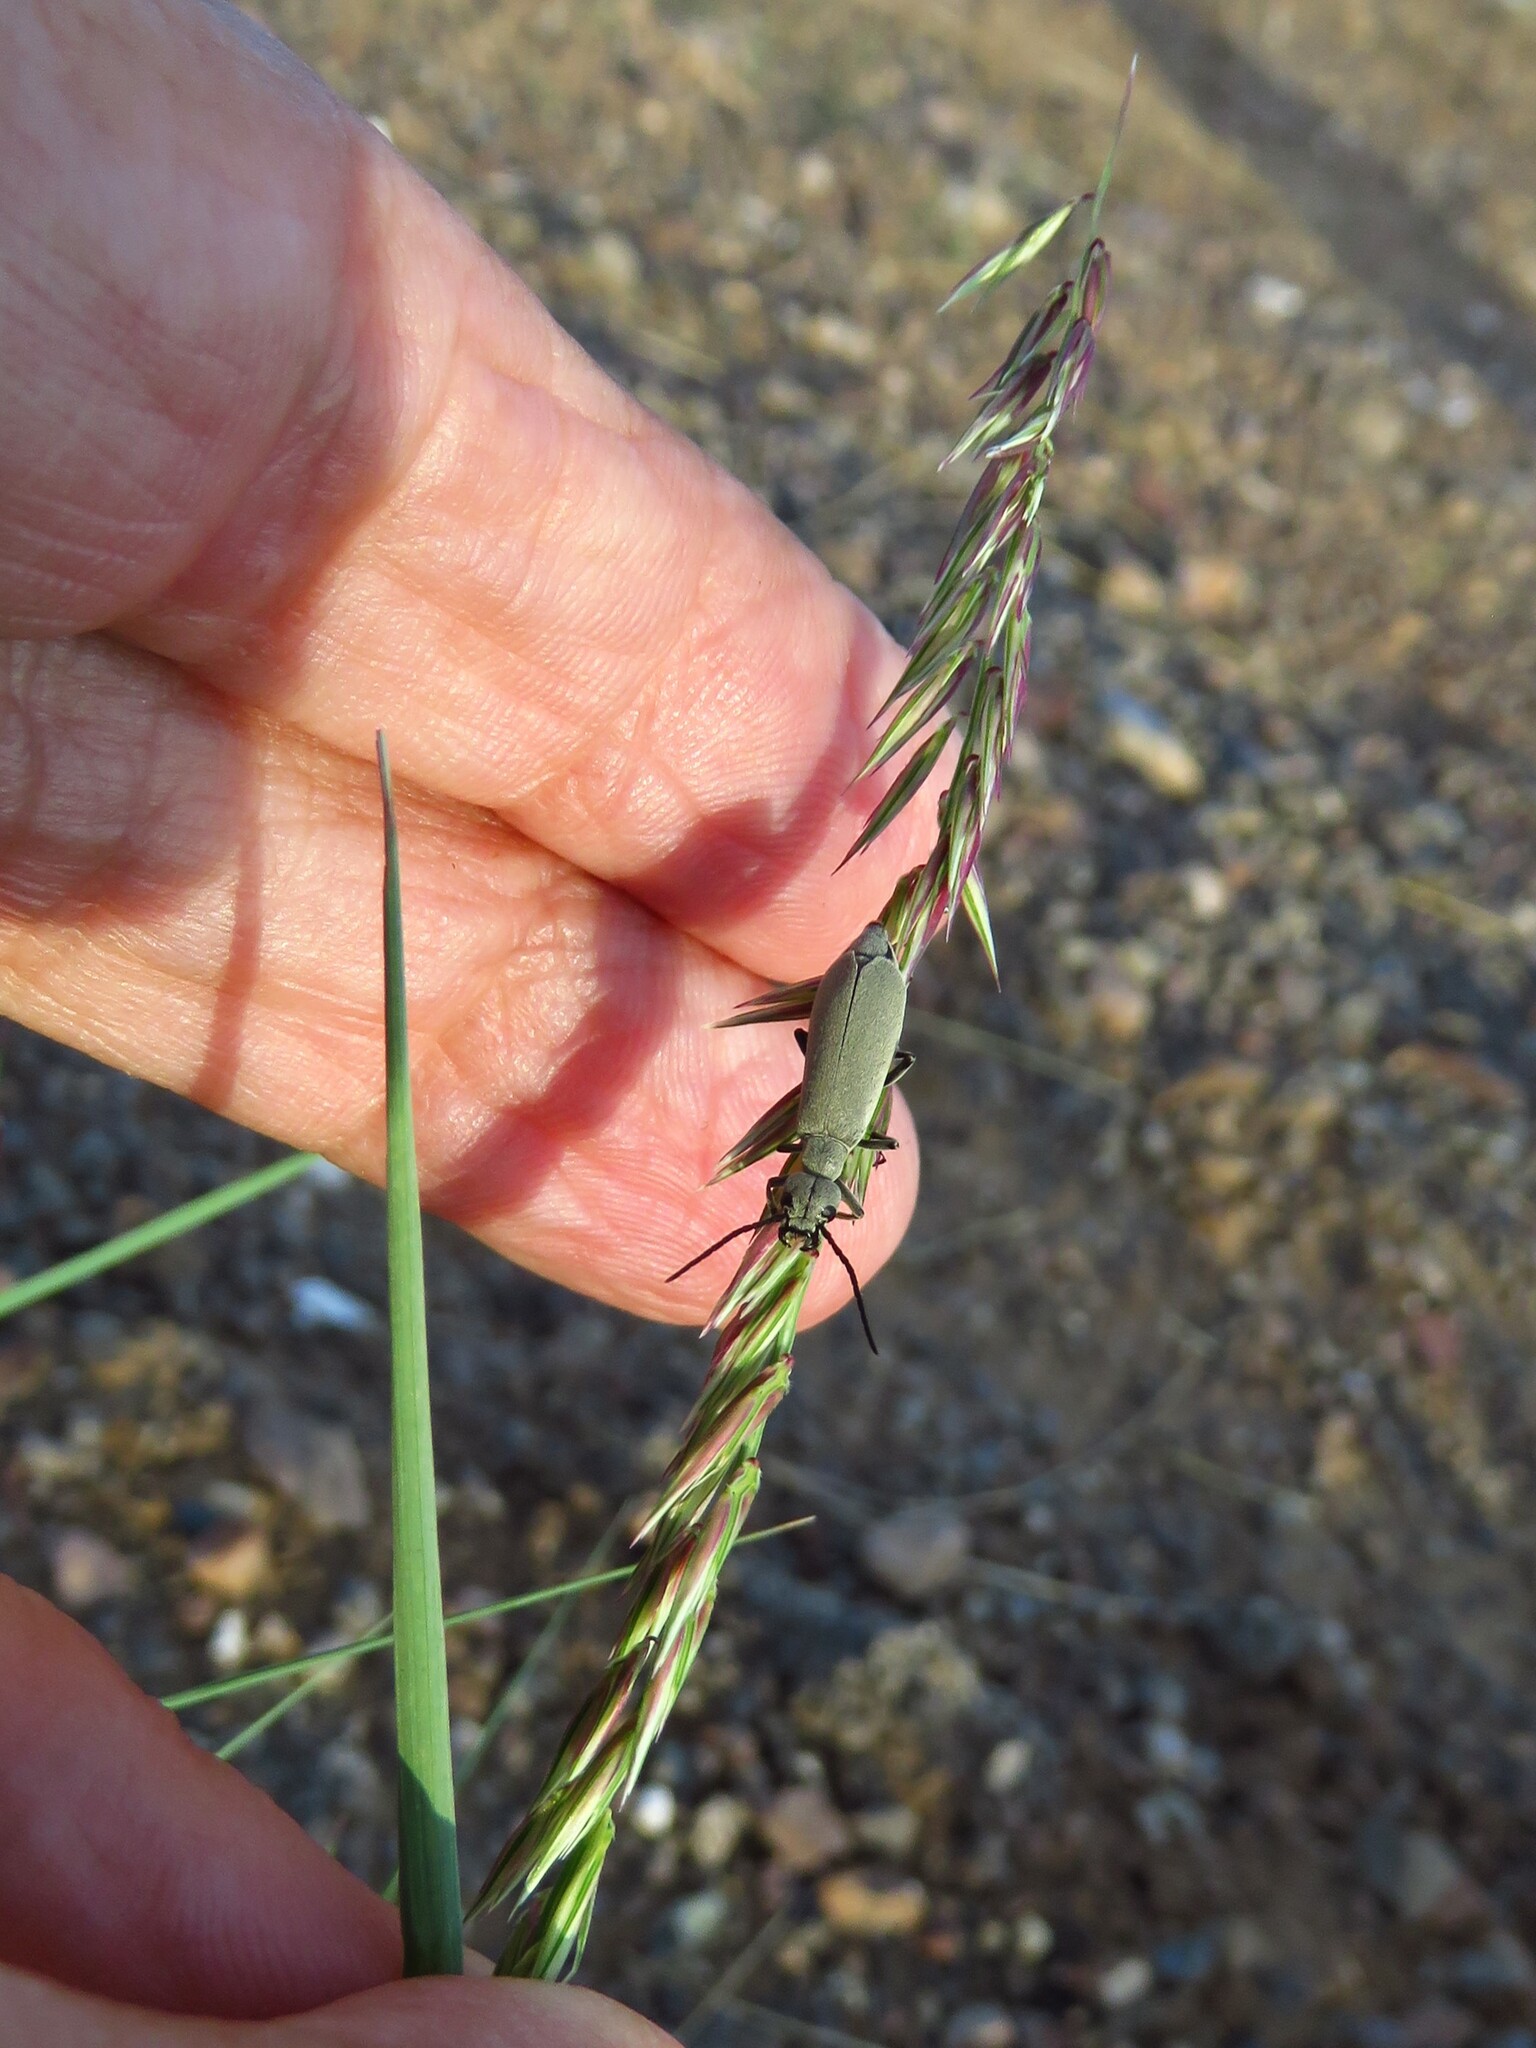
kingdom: Plantae
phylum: Tracheophyta
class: Liliopsida
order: Poales
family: Poaceae
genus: Bouteloua
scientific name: Bouteloua curtipendula
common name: Side-oats grama
